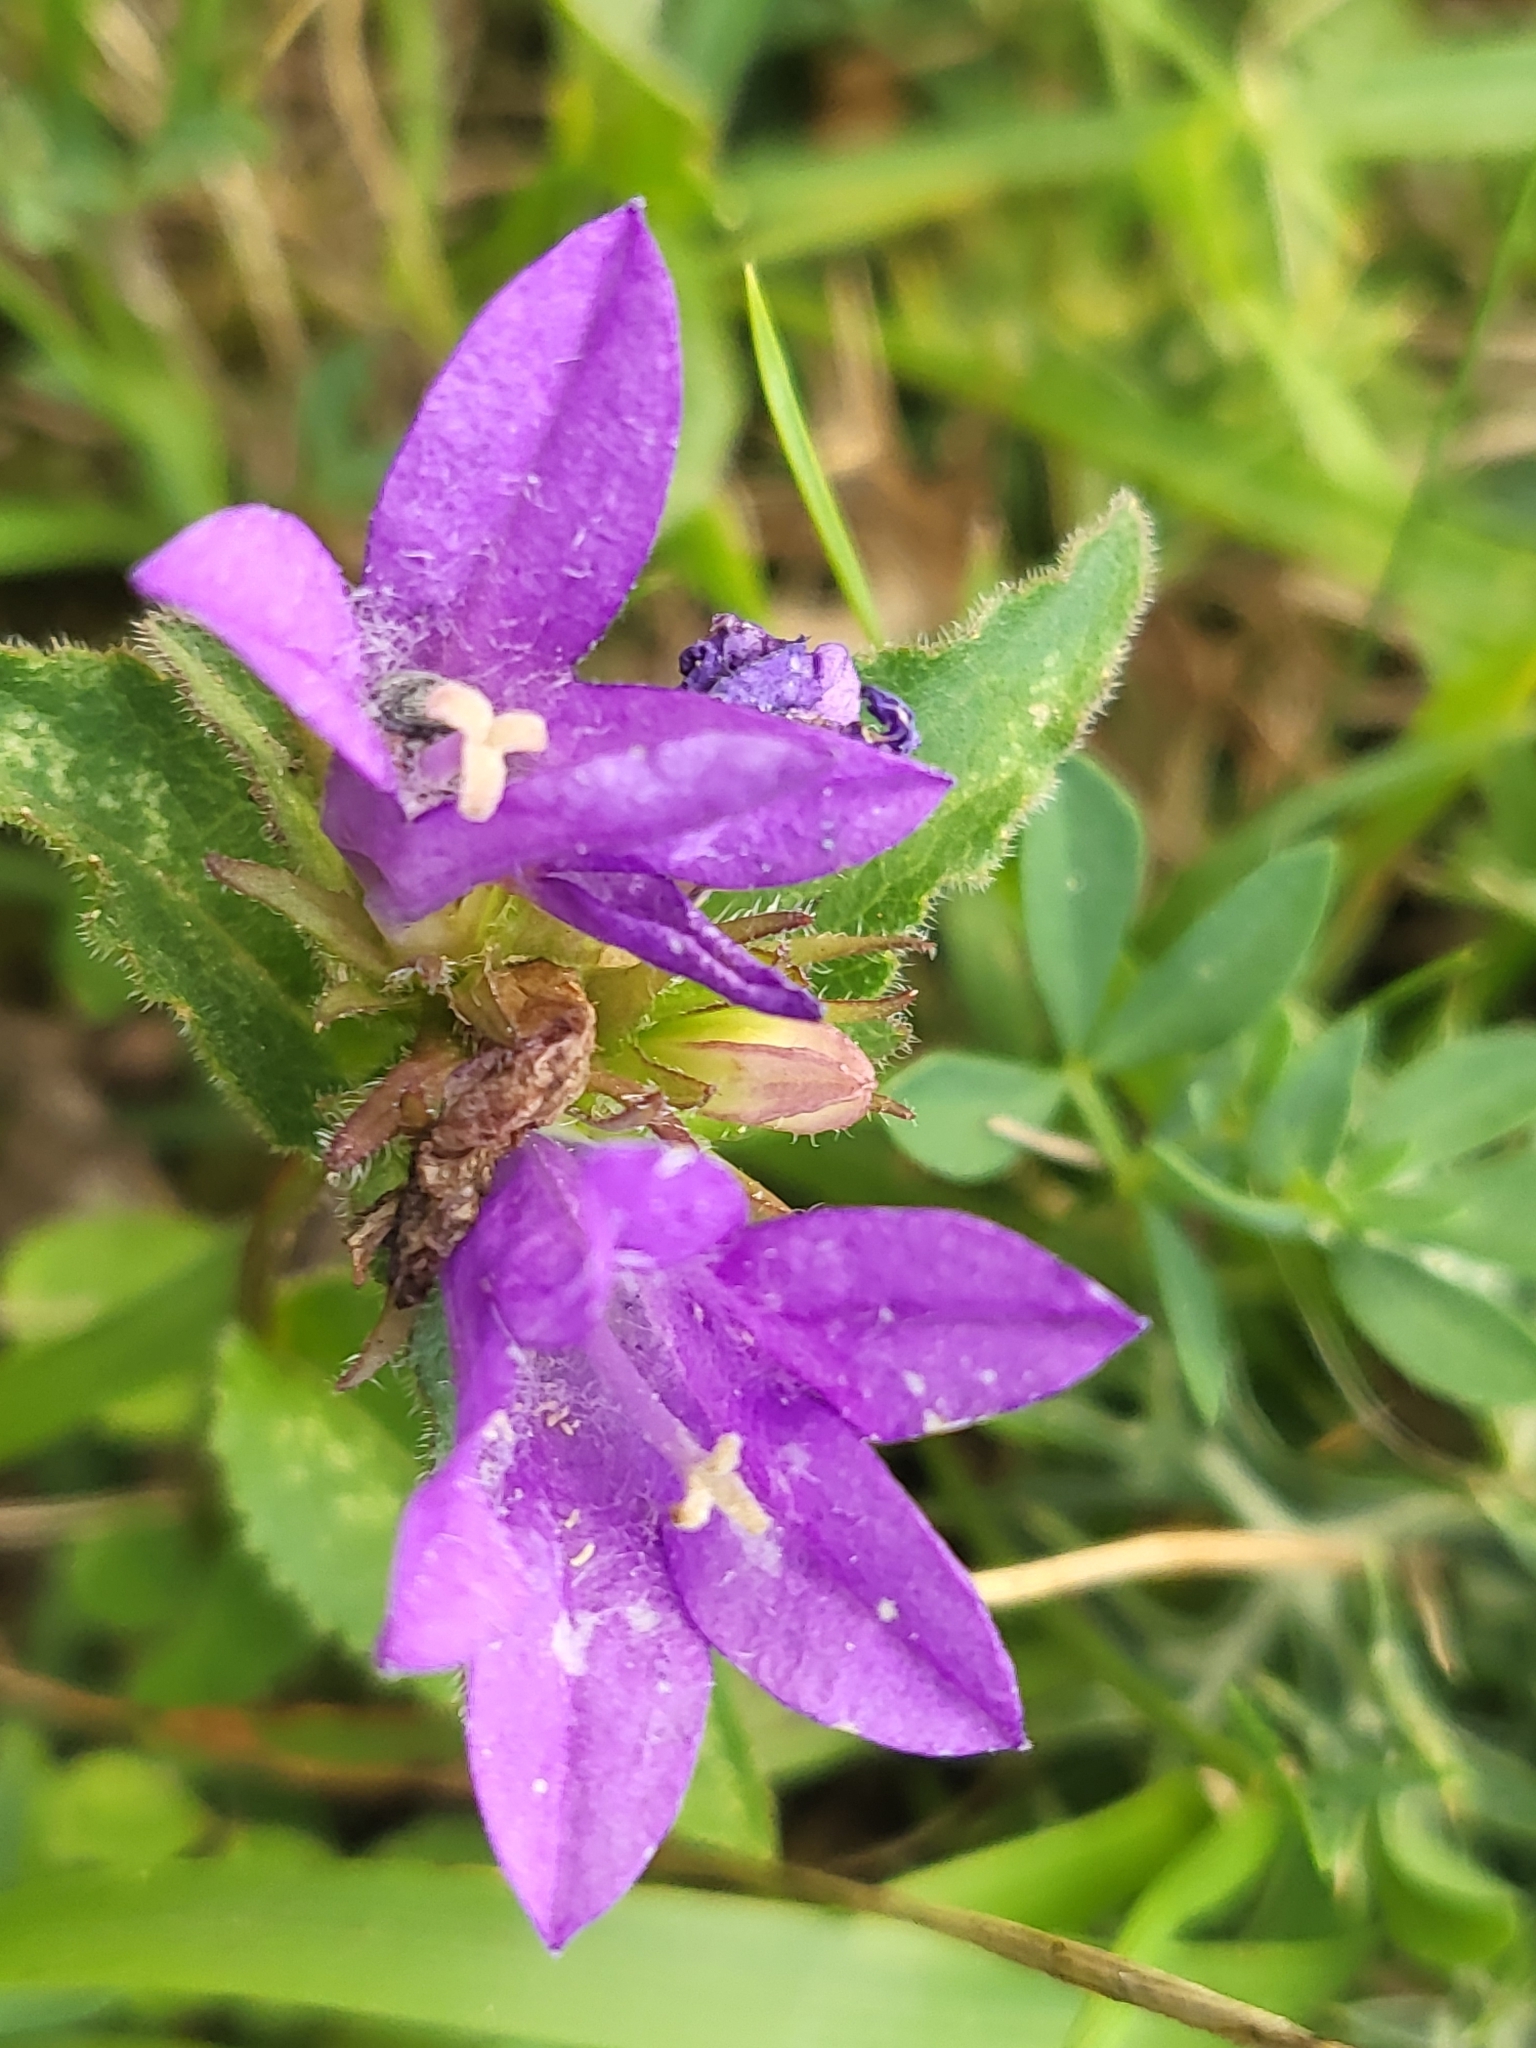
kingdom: Plantae
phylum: Tracheophyta
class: Magnoliopsida
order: Asterales
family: Campanulaceae
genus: Campanula
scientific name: Campanula glomerata
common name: Clustered bellflower
